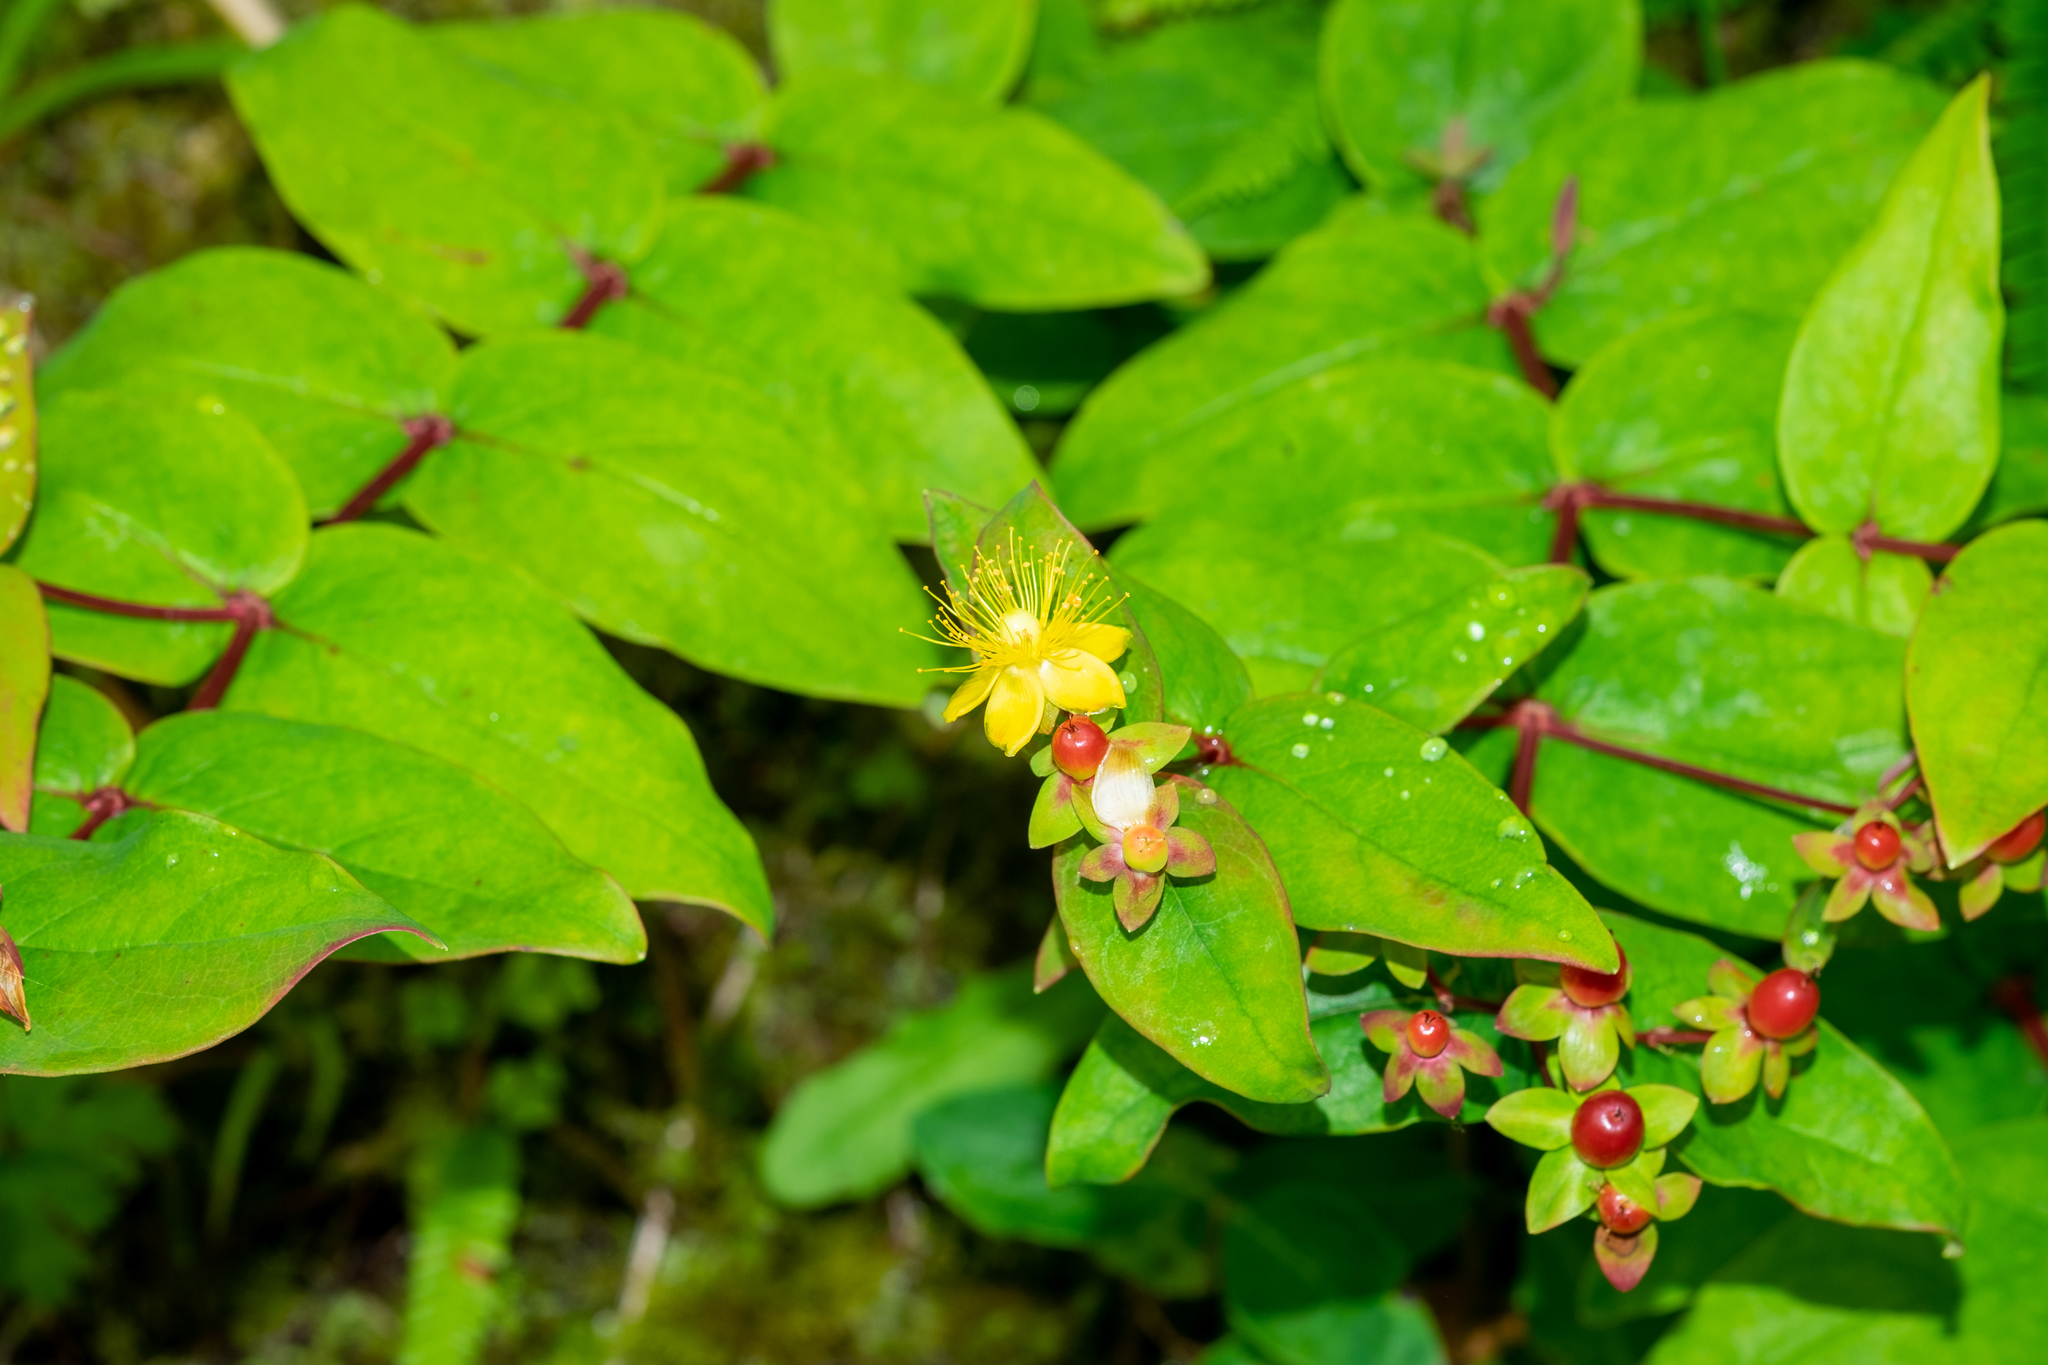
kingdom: Plantae
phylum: Tracheophyta
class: Magnoliopsida
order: Malpighiales
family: Hypericaceae
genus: Hypericum
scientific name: Hypericum androsaemum
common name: Sweet-amber
